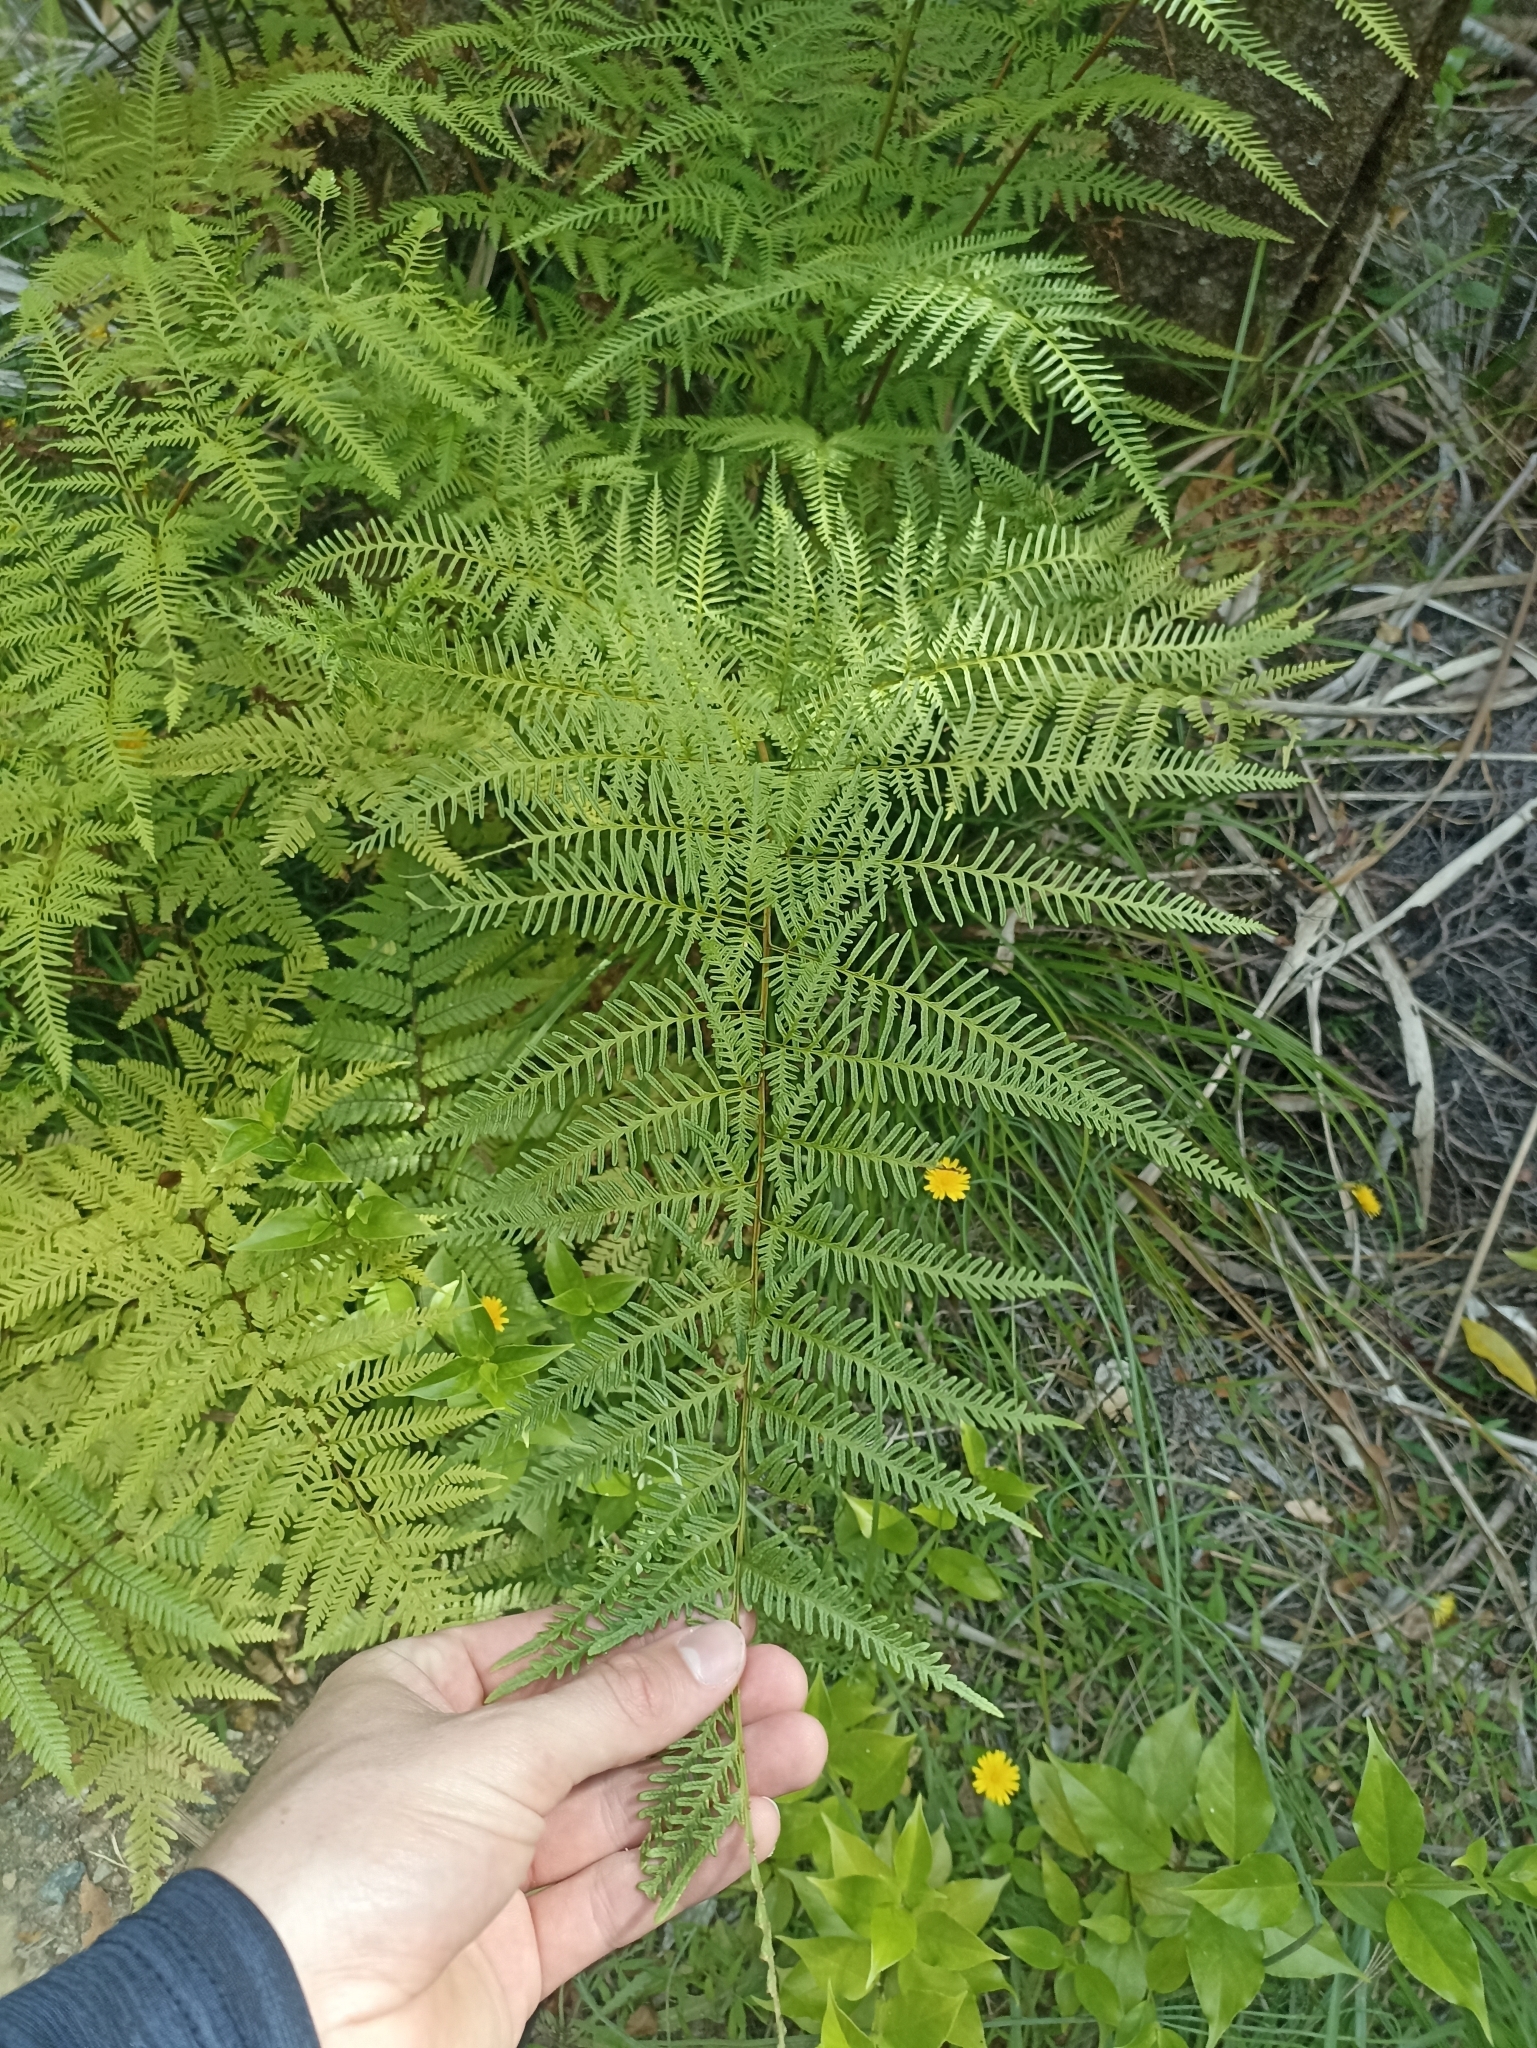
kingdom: Plantae
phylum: Tracheophyta
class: Polypodiopsida
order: Polypodiales
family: Pteridaceae
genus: Pteris
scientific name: Pteris tremula
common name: Australian brake
